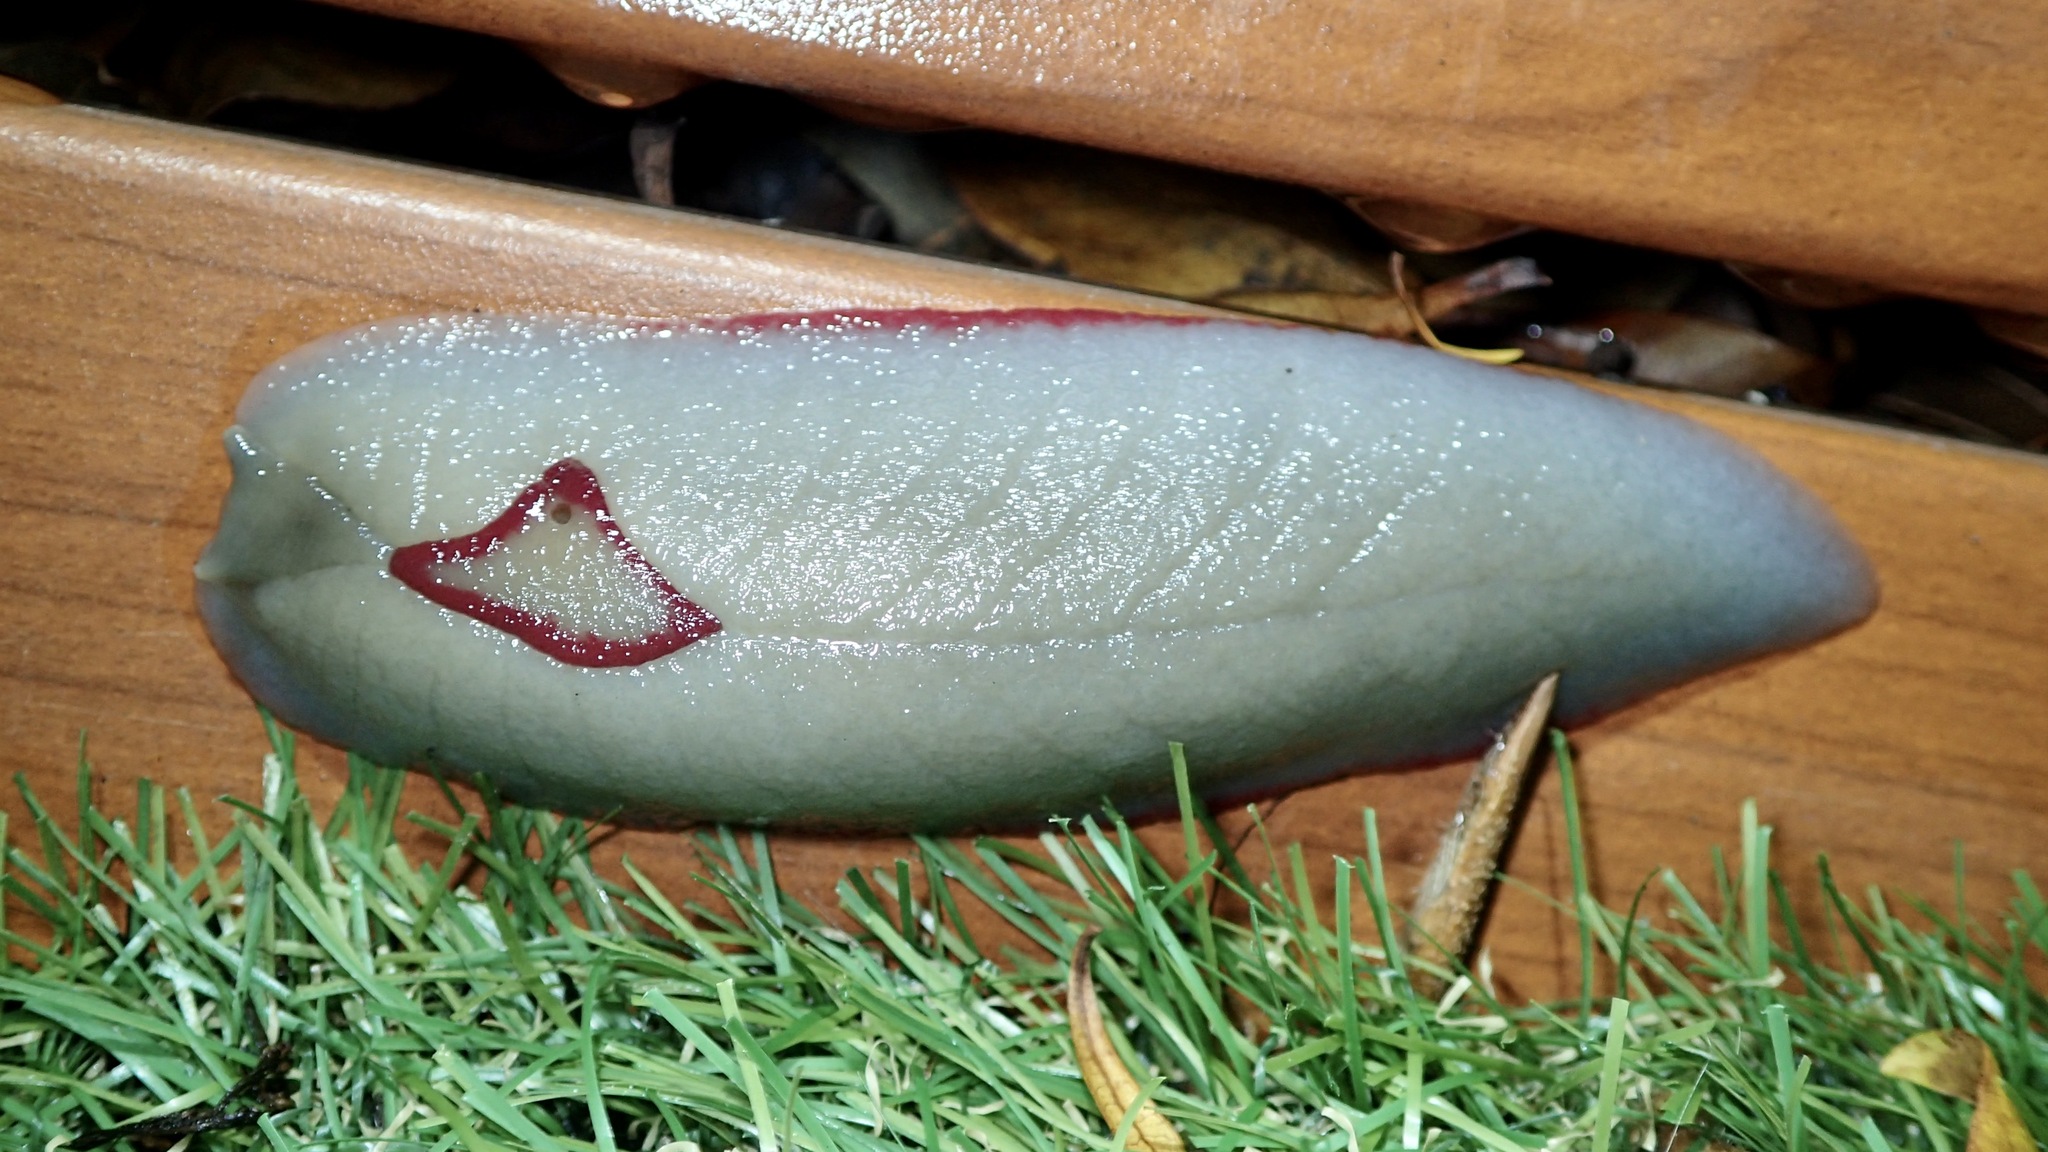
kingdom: Animalia
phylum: Mollusca
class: Gastropoda
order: Stylommatophora
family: Athoracophoridae
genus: Triboniophorus
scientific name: Triboniophorus graeffei
